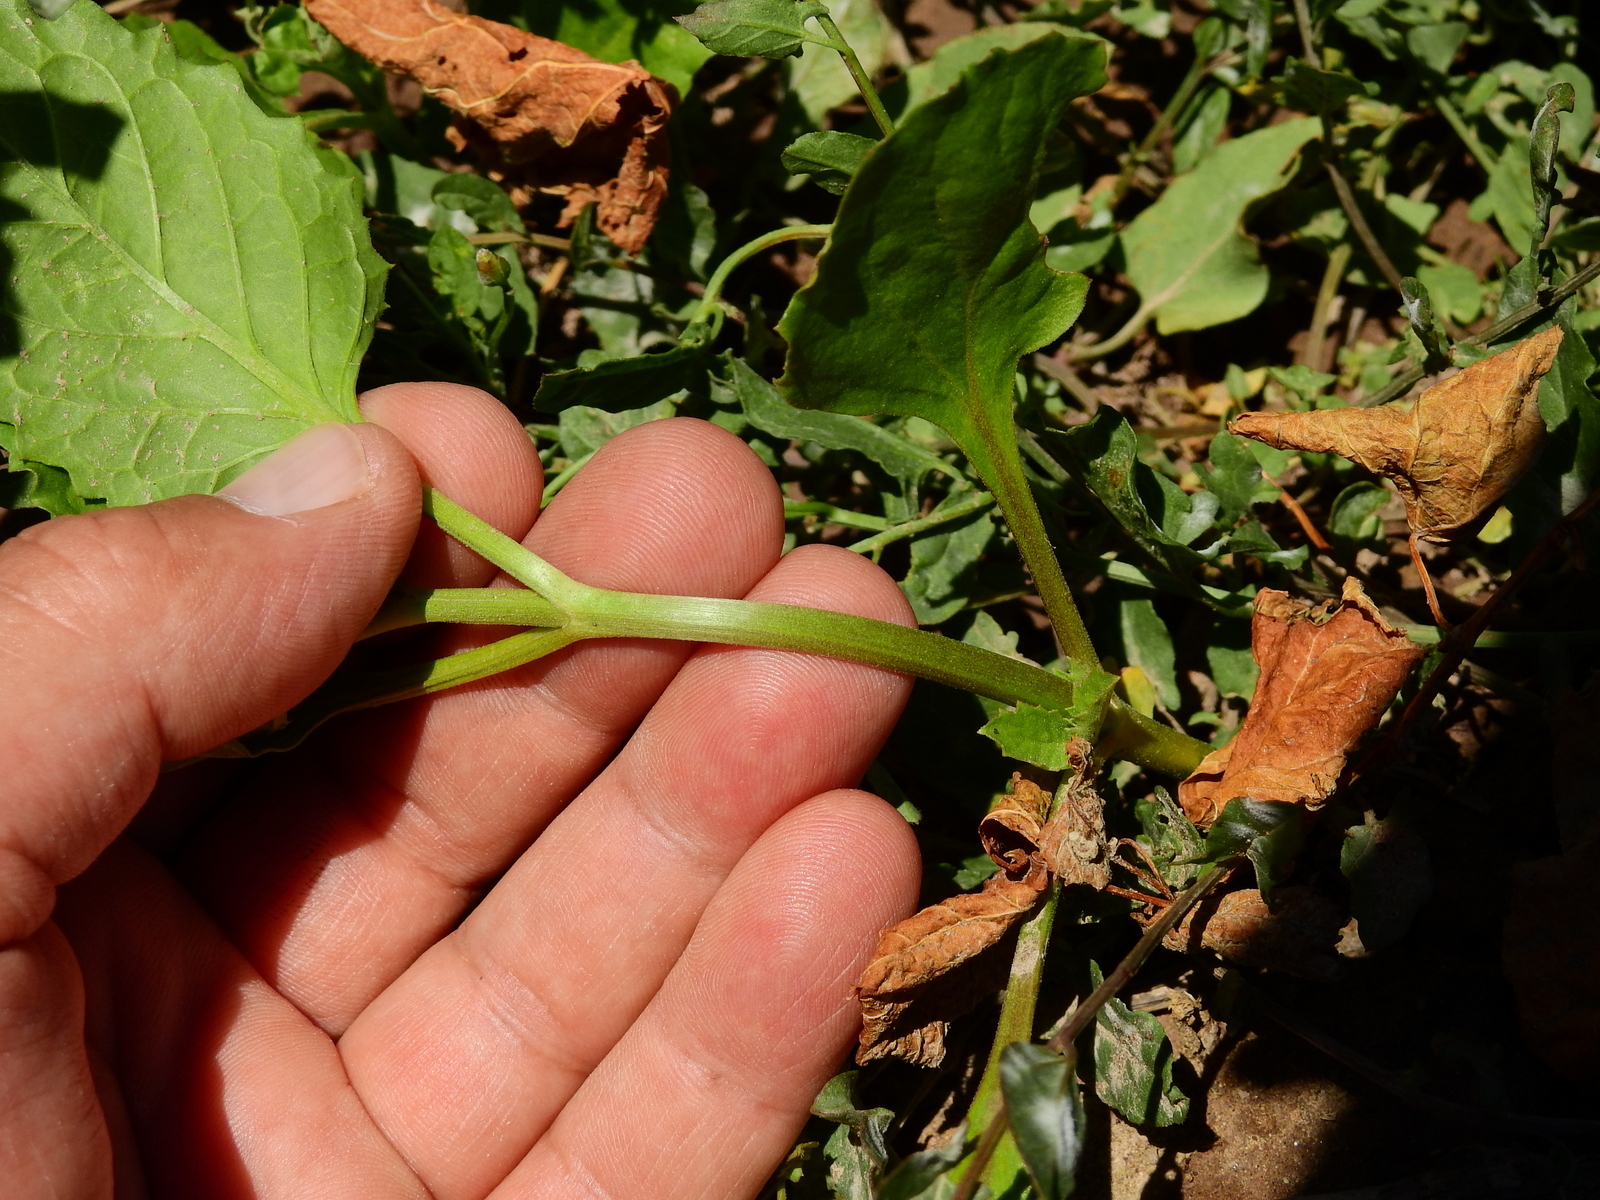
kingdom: Plantae
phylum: Tracheophyta
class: Magnoliopsida
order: Lamiales
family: Verbenaceae
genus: Pitraea
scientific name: Pitraea cuneato-ovata
